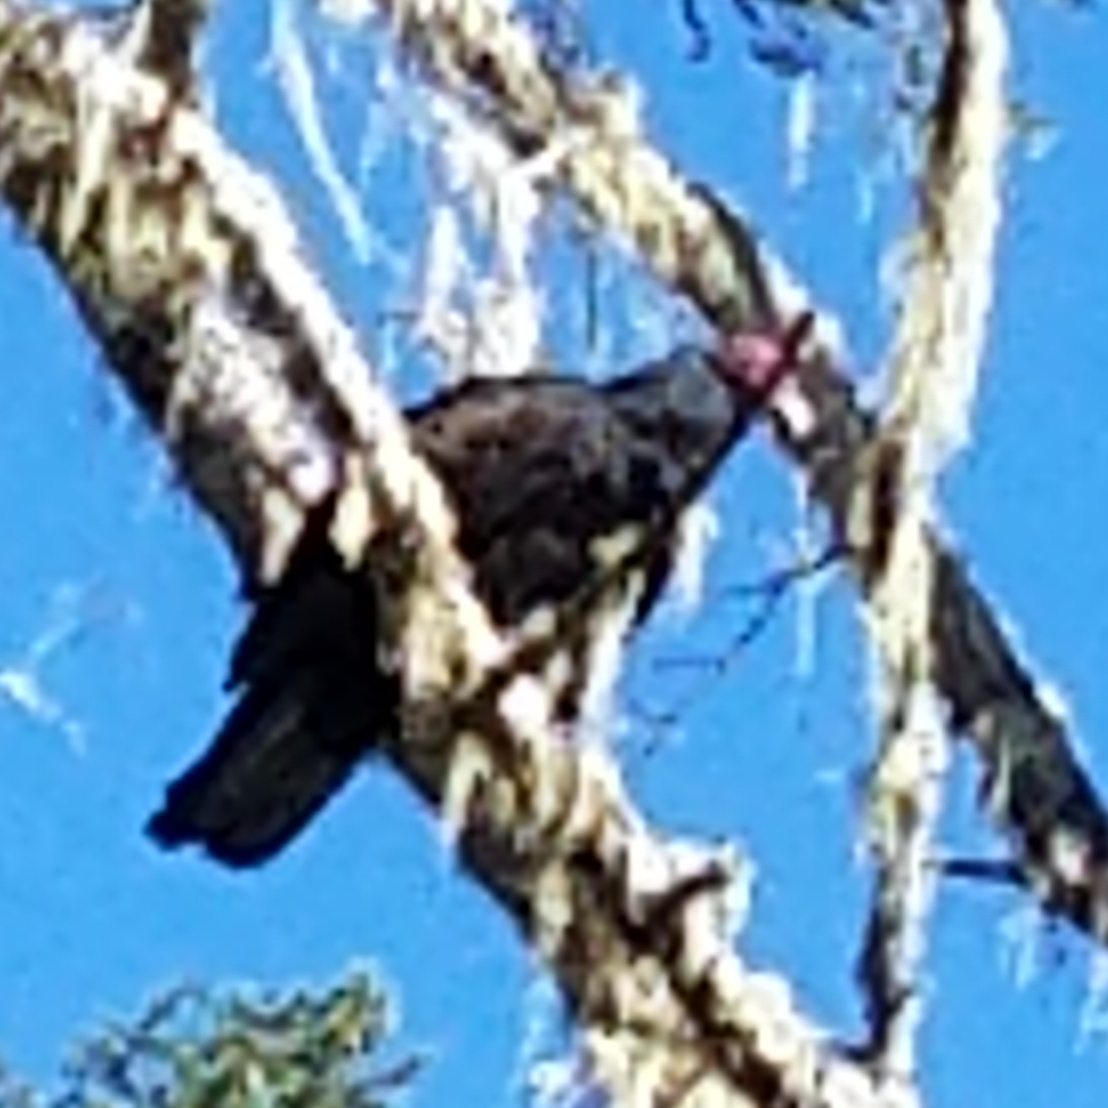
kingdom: Animalia
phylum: Chordata
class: Aves
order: Accipitriformes
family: Cathartidae
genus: Cathartes
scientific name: Cathartes aura
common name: Turkey vulture
